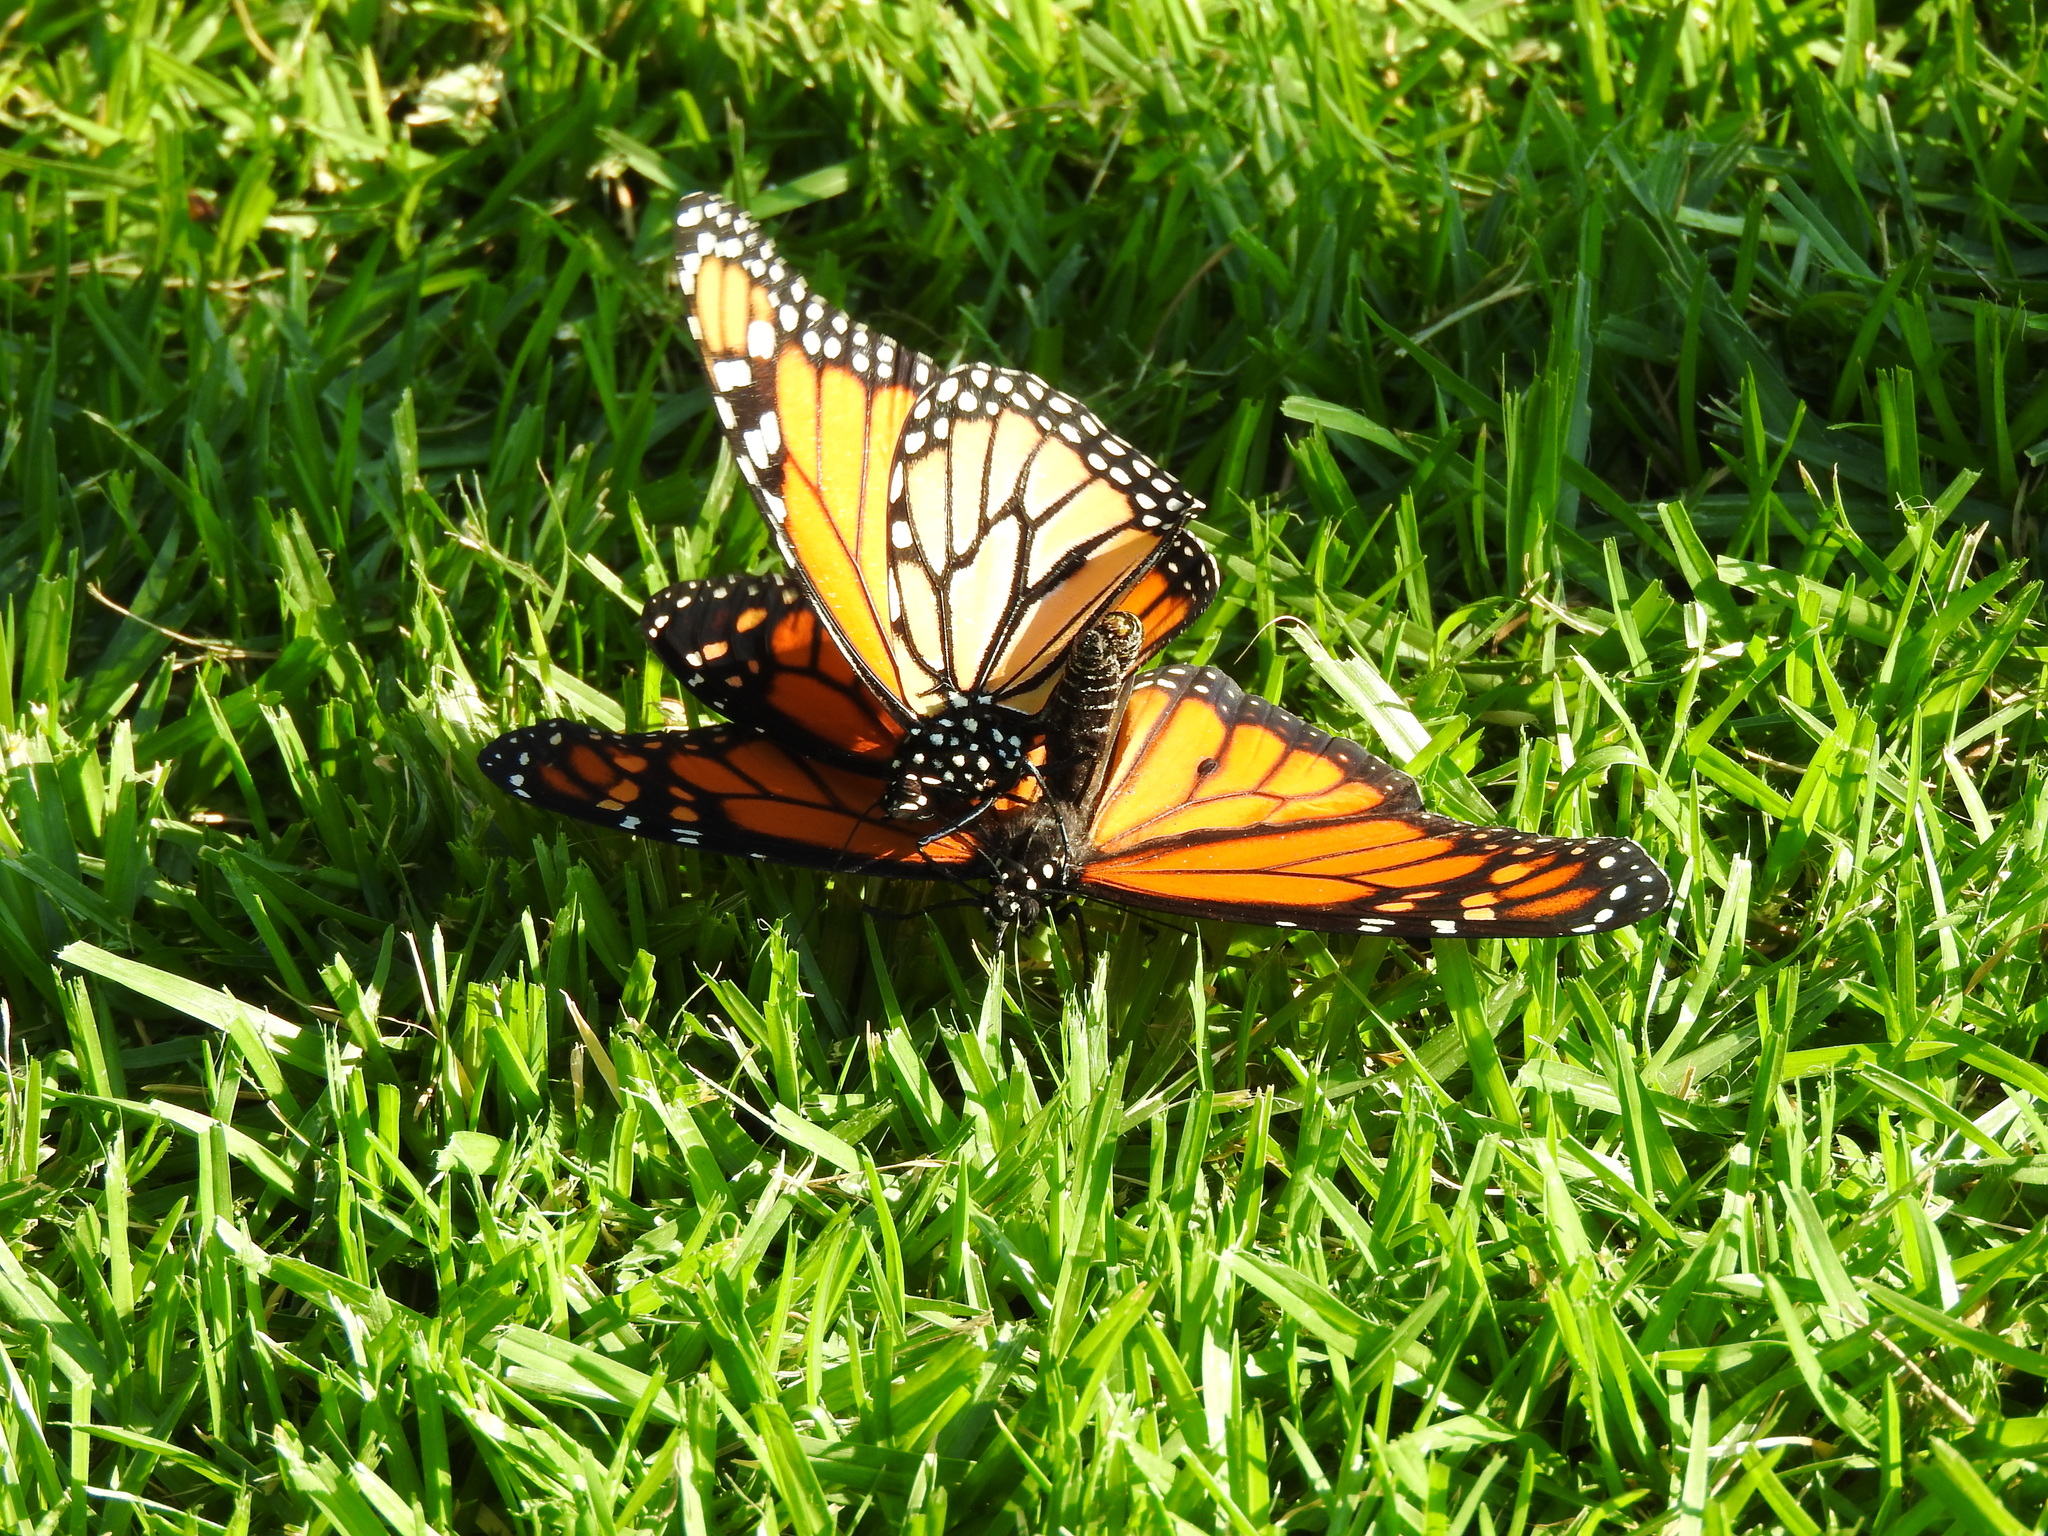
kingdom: Animalia
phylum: Arthropoda
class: Insecta
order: Lepidoptera
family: Nymphalidae
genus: Danaus
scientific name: Danaus plexippus
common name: Monarch
